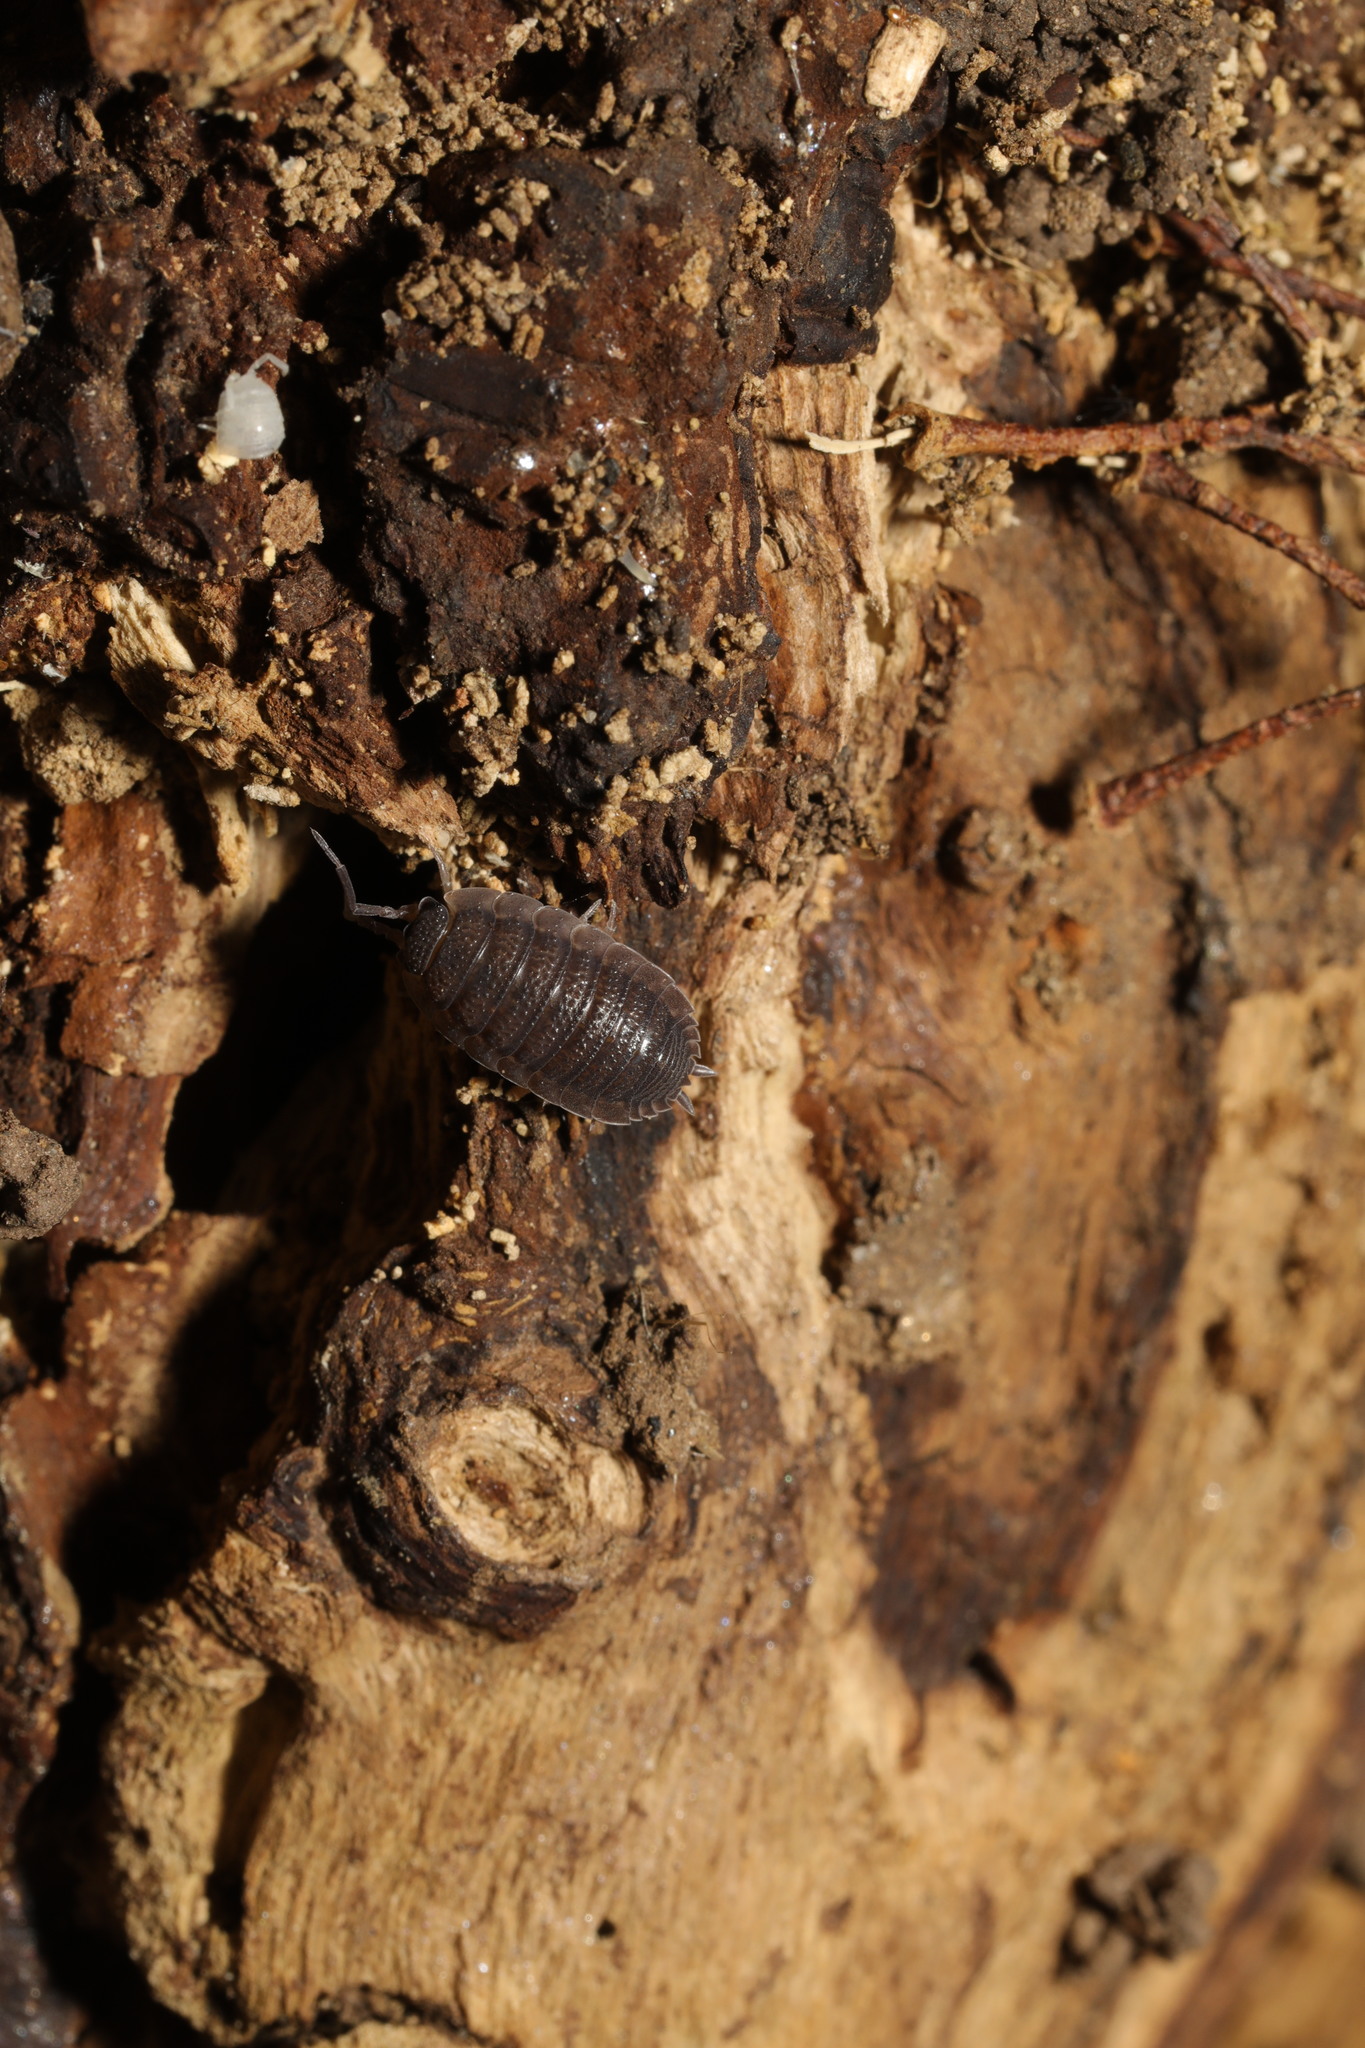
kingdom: Animalia
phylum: Arthropoda
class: Malacostraca
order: Isopoda
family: Porcellionidae
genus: Porcellio
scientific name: Porcellio scaber
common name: Common rough woodlouse
